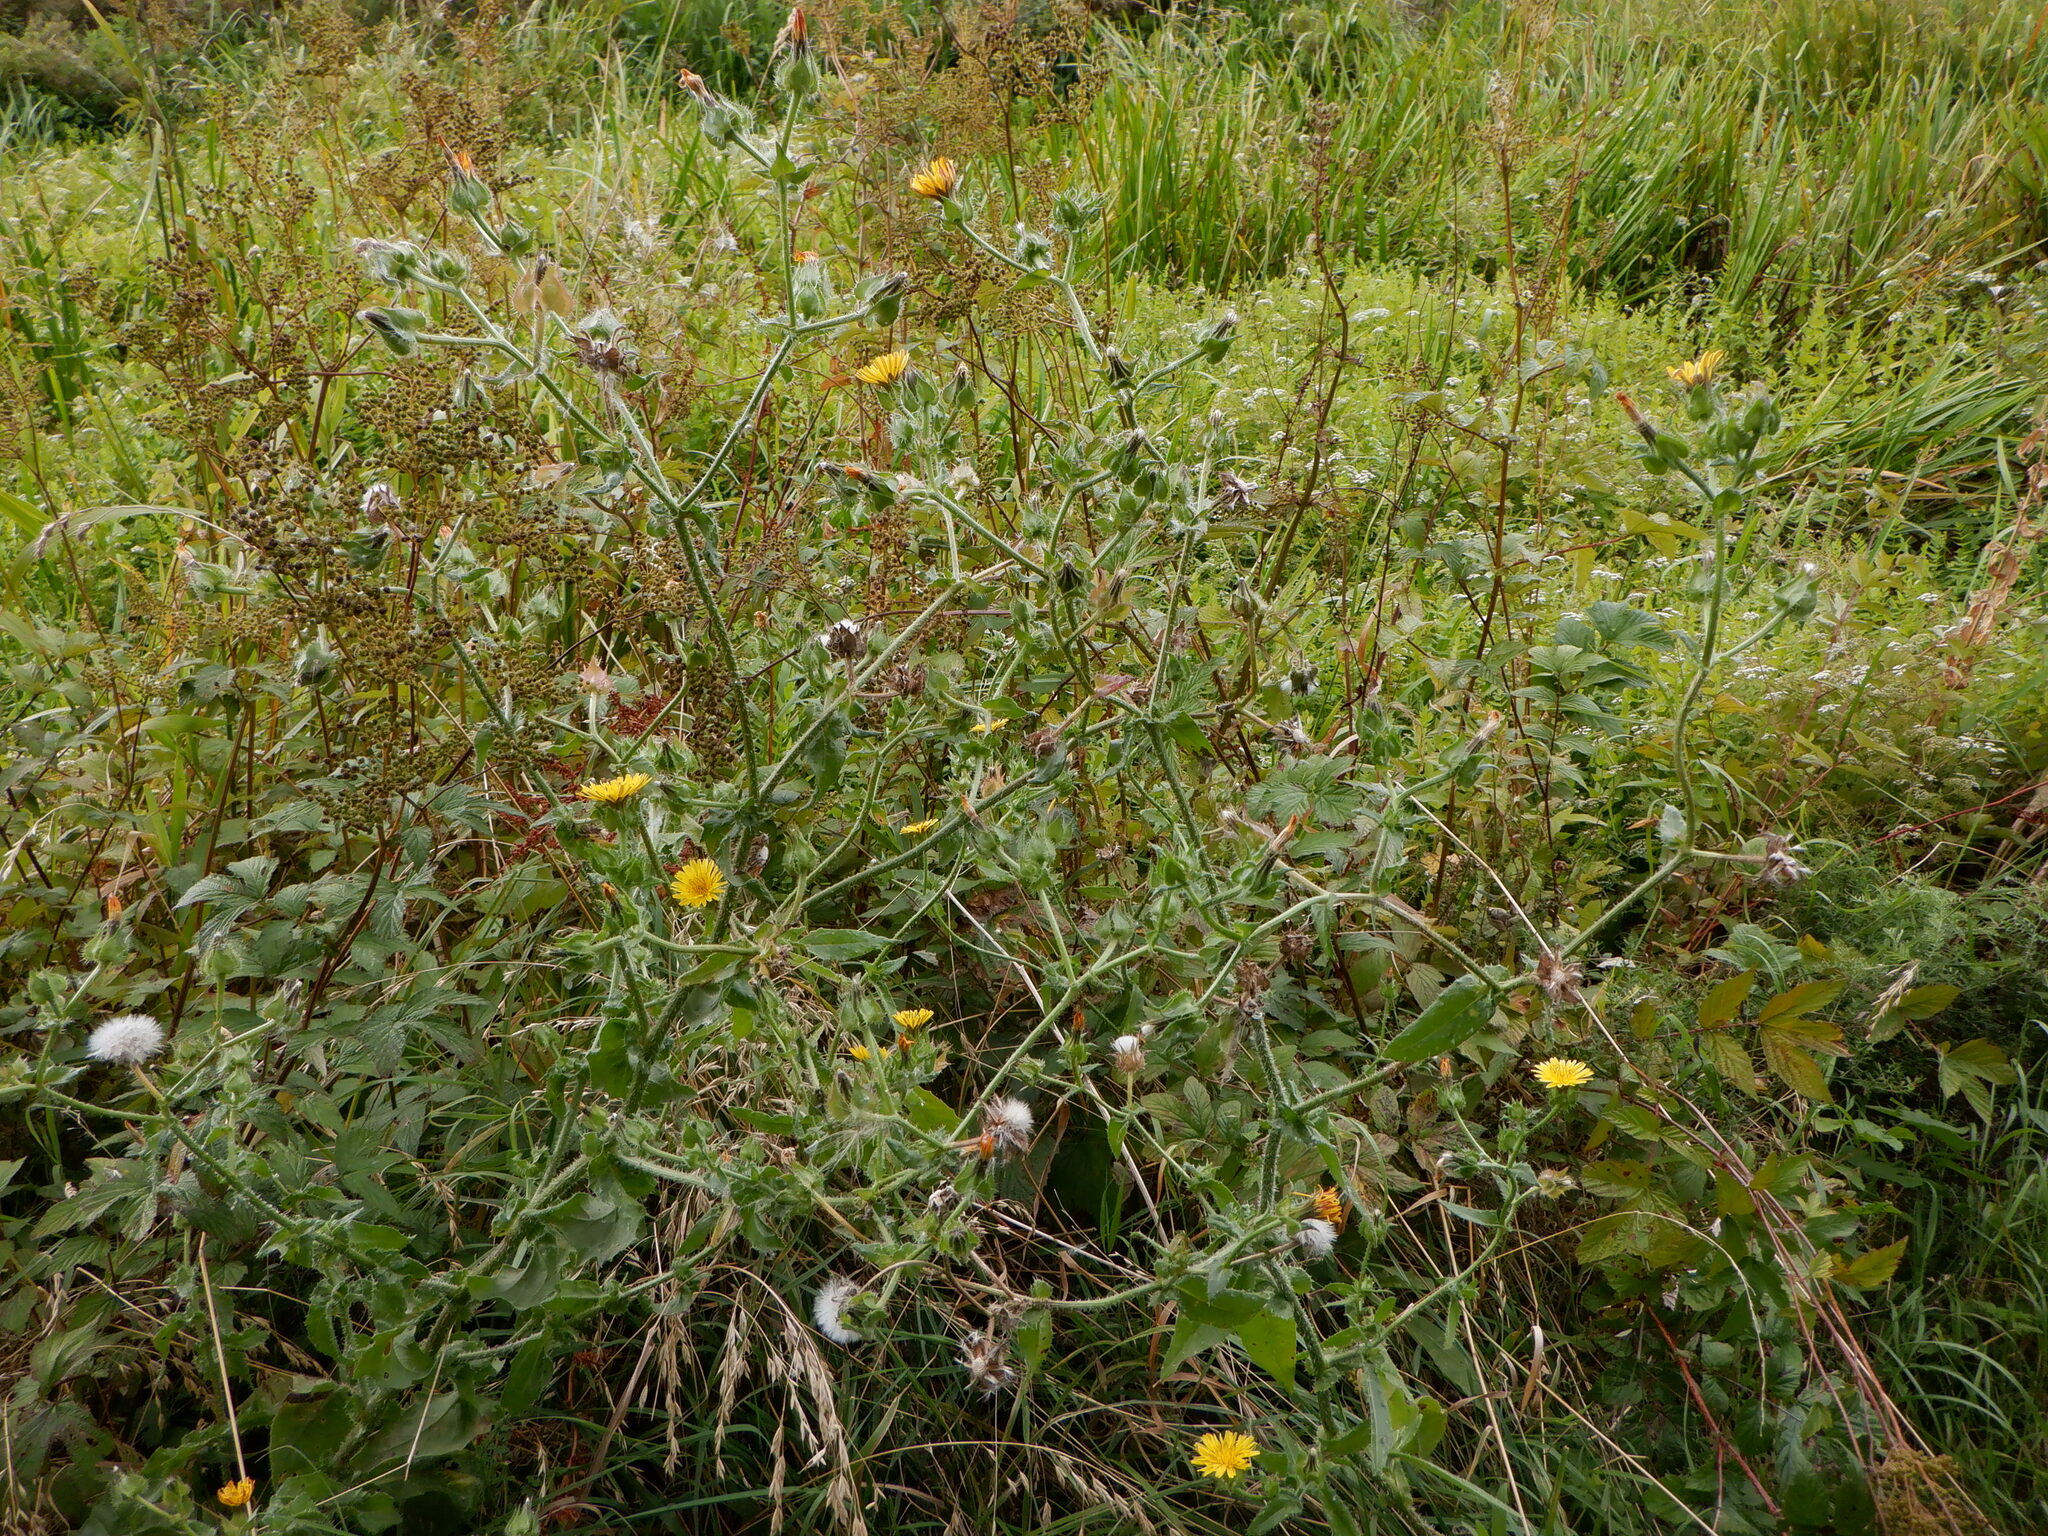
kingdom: Plantae
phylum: Tracheophyta
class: Magnoliopsida
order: Asterales
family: Asteraceae
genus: Helminthotheca
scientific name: Helminthotheca echioides
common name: Ox-tongue
